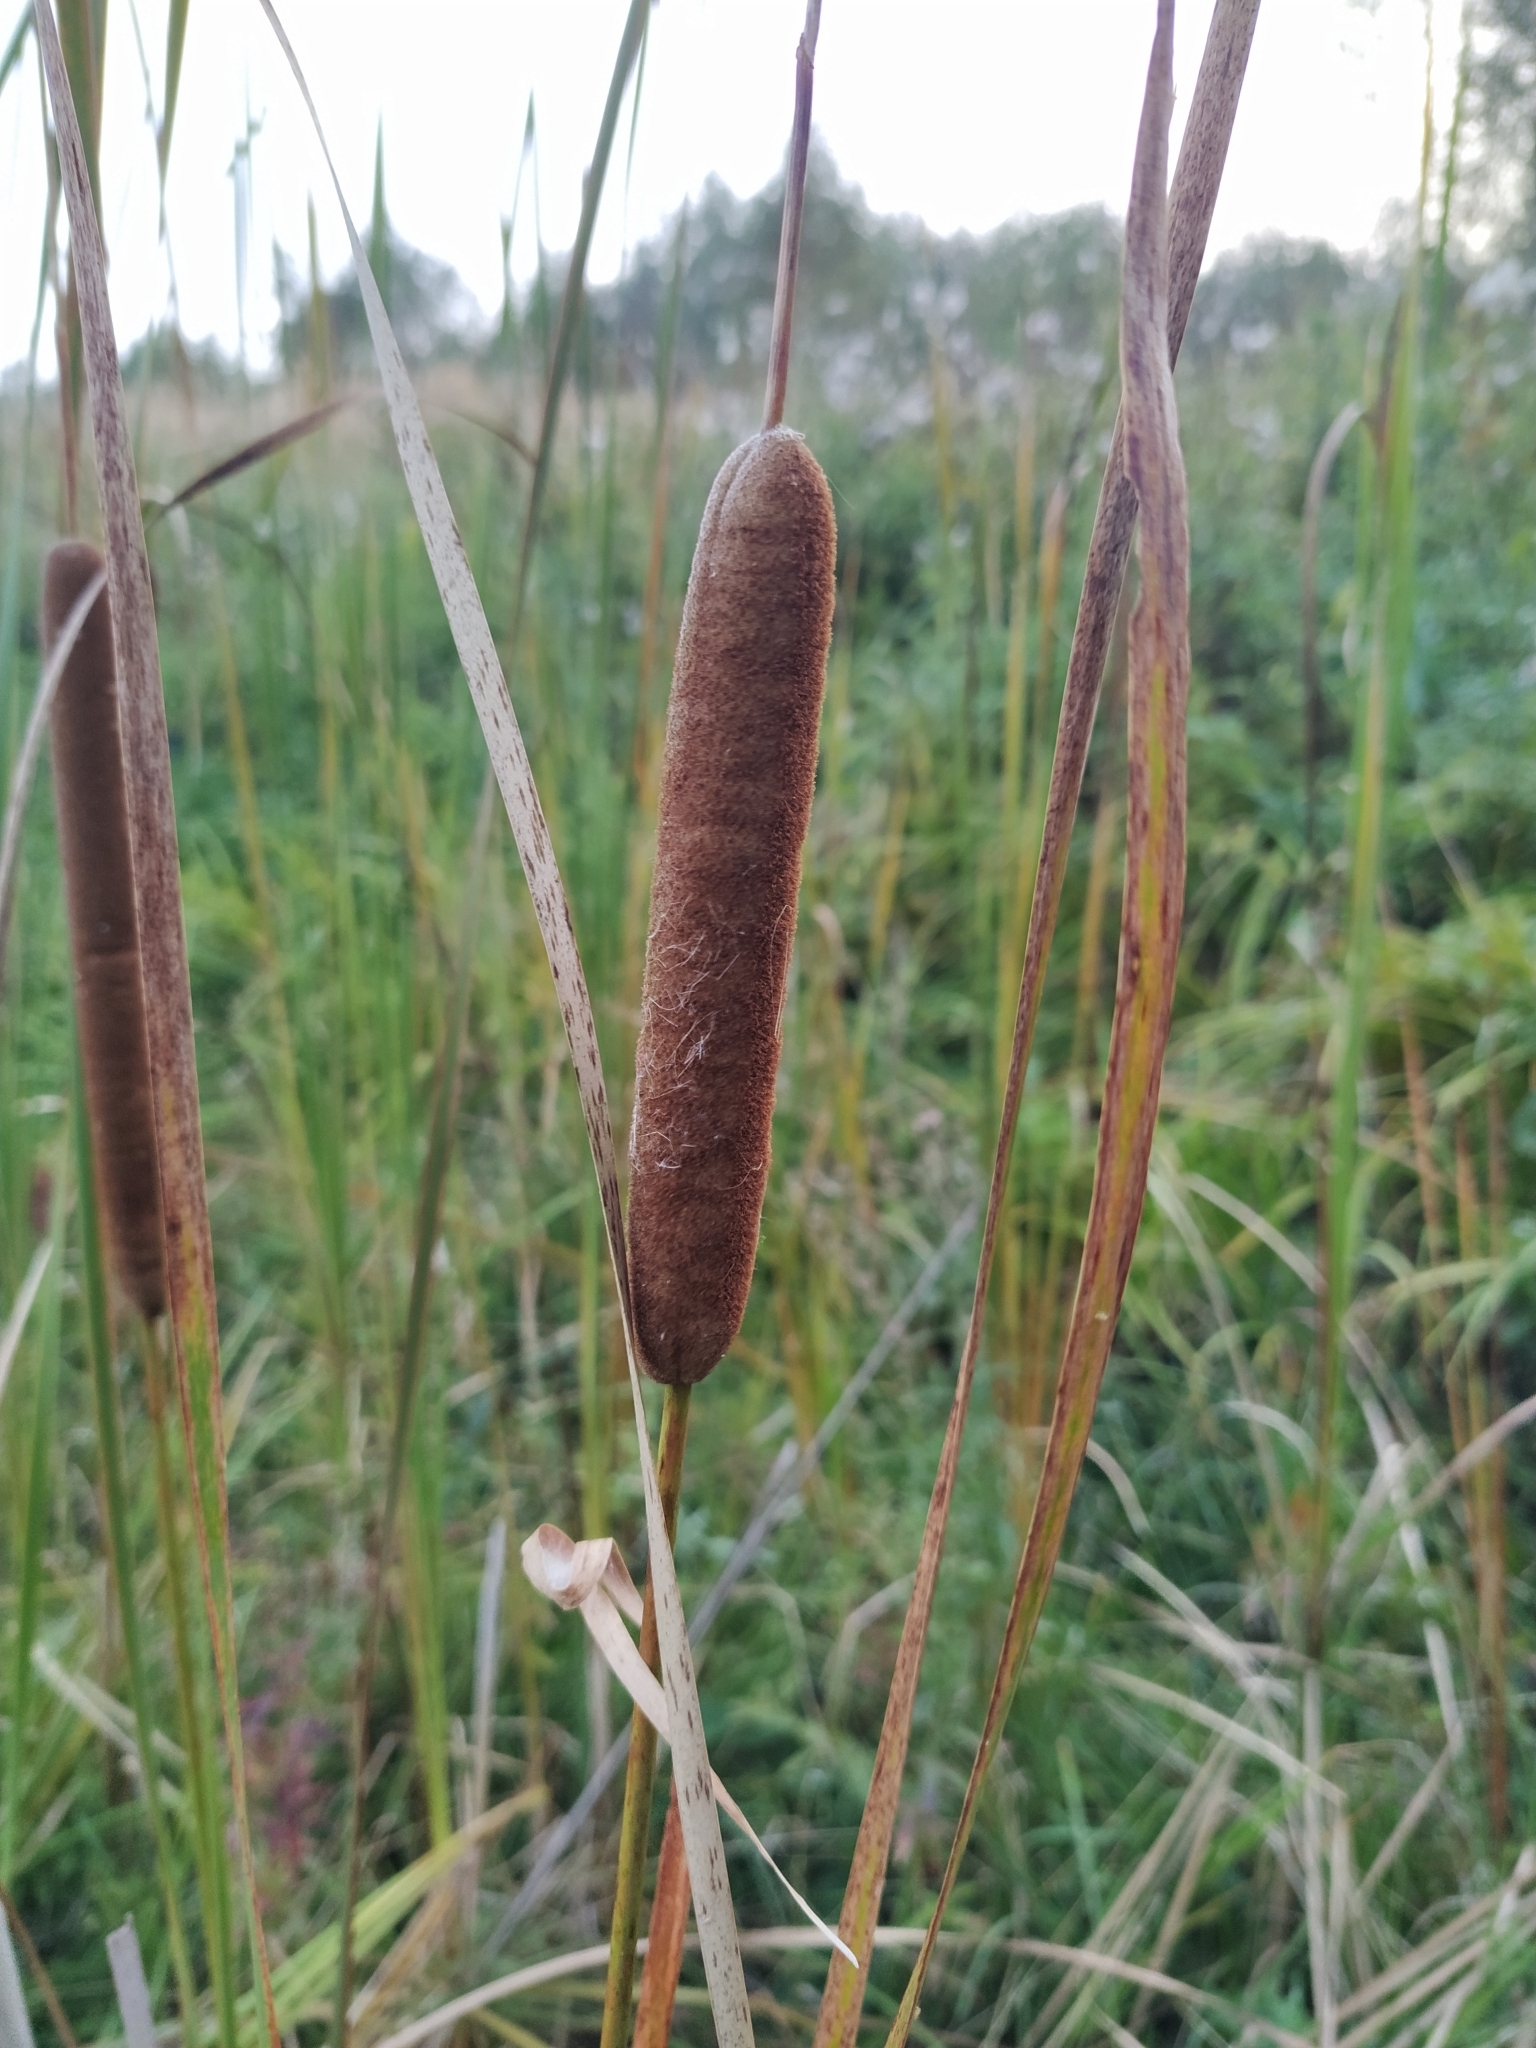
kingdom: Plantae
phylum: Tracheophyta
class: Liliopsida
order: Poales
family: Typhaceae
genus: Typha
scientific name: Typha angustifolia
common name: Lesser bulrush
